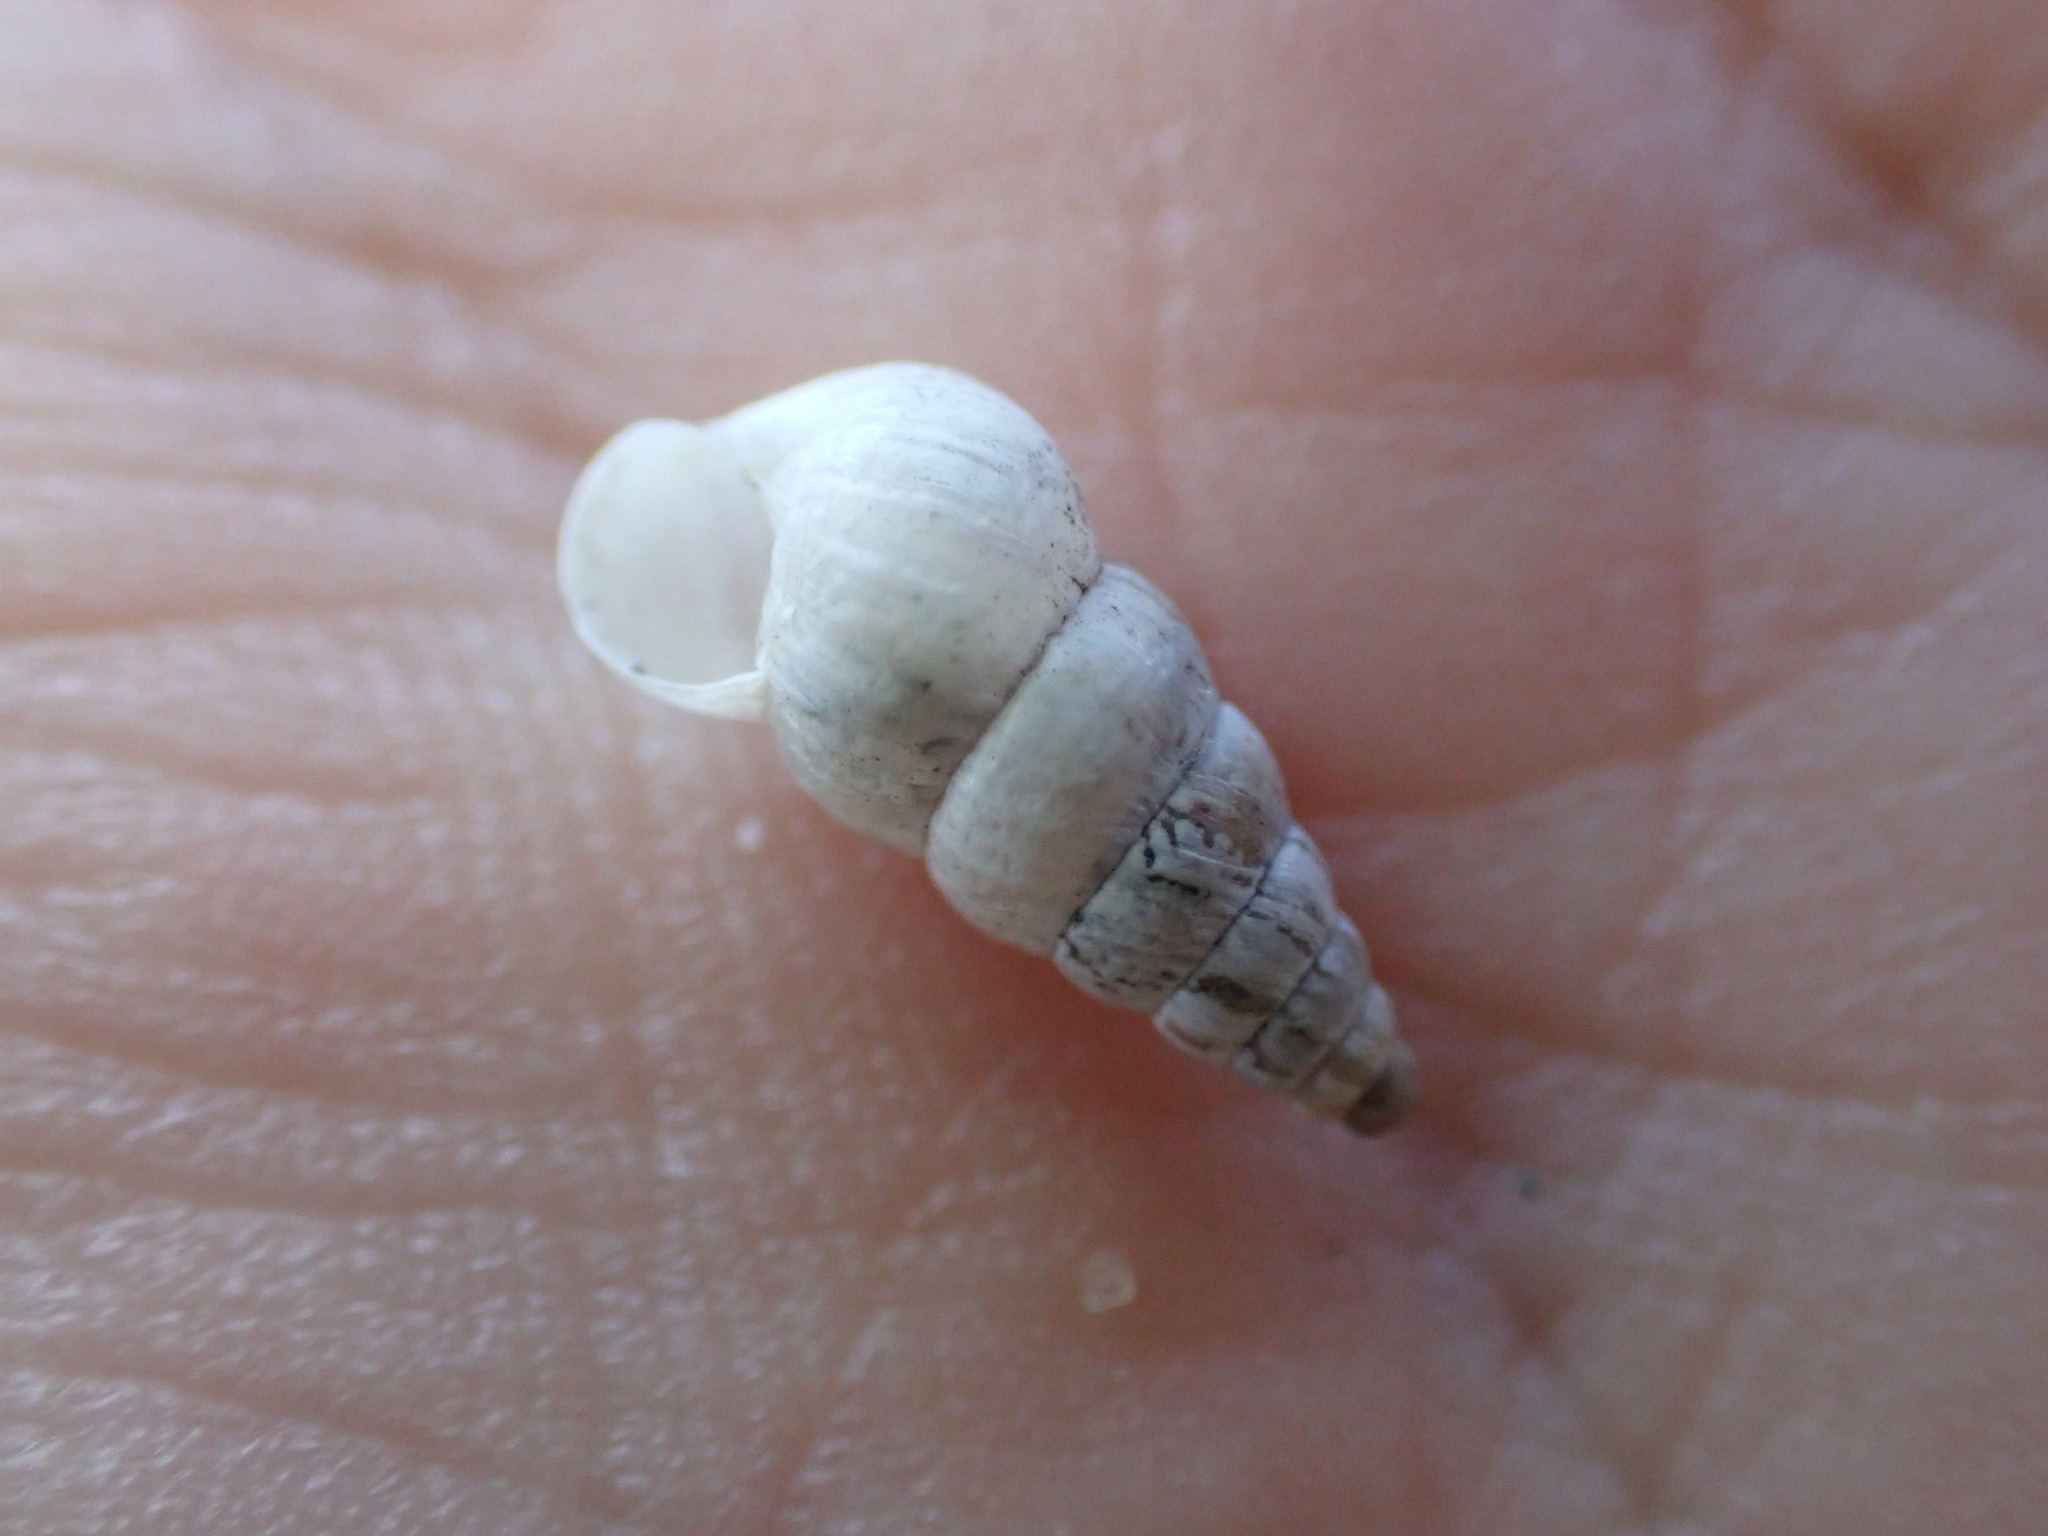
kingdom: Animalia
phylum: Mollusca
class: Gastropoda
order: Stylommatophora
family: Geomitridae
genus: Cochlicella
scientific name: Cochlicella acuta
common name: Pointed snail
